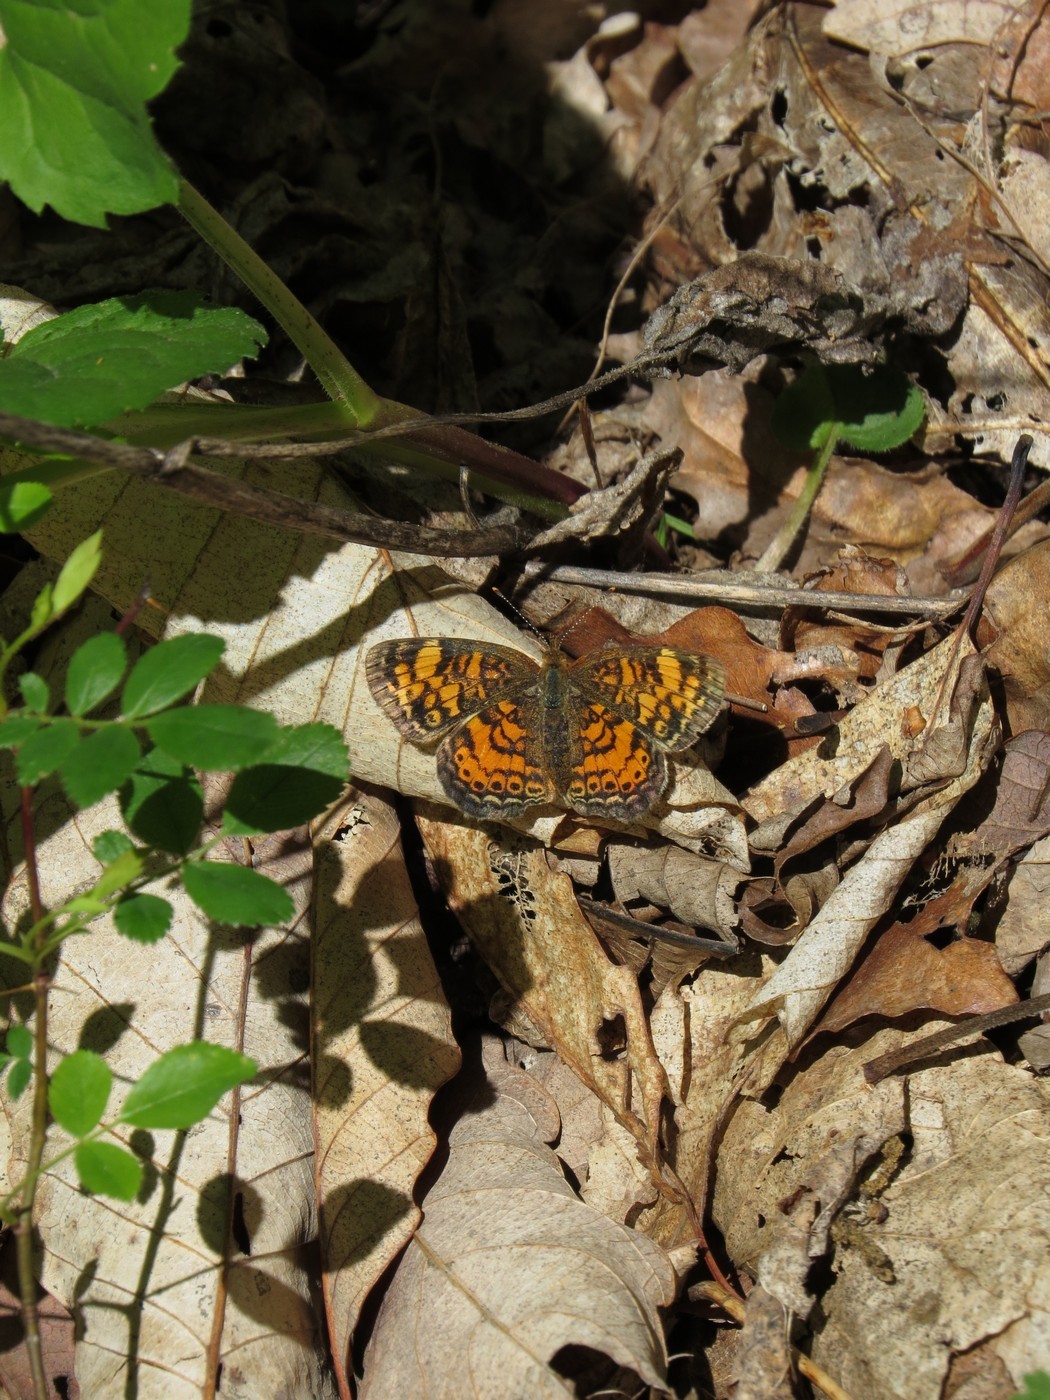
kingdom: Animalia
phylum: Arthropoda
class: Insecta
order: Lepidoptera
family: Nymphalidae
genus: Phyciodes
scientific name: Phyciodes tharos
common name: Pearl crescent
